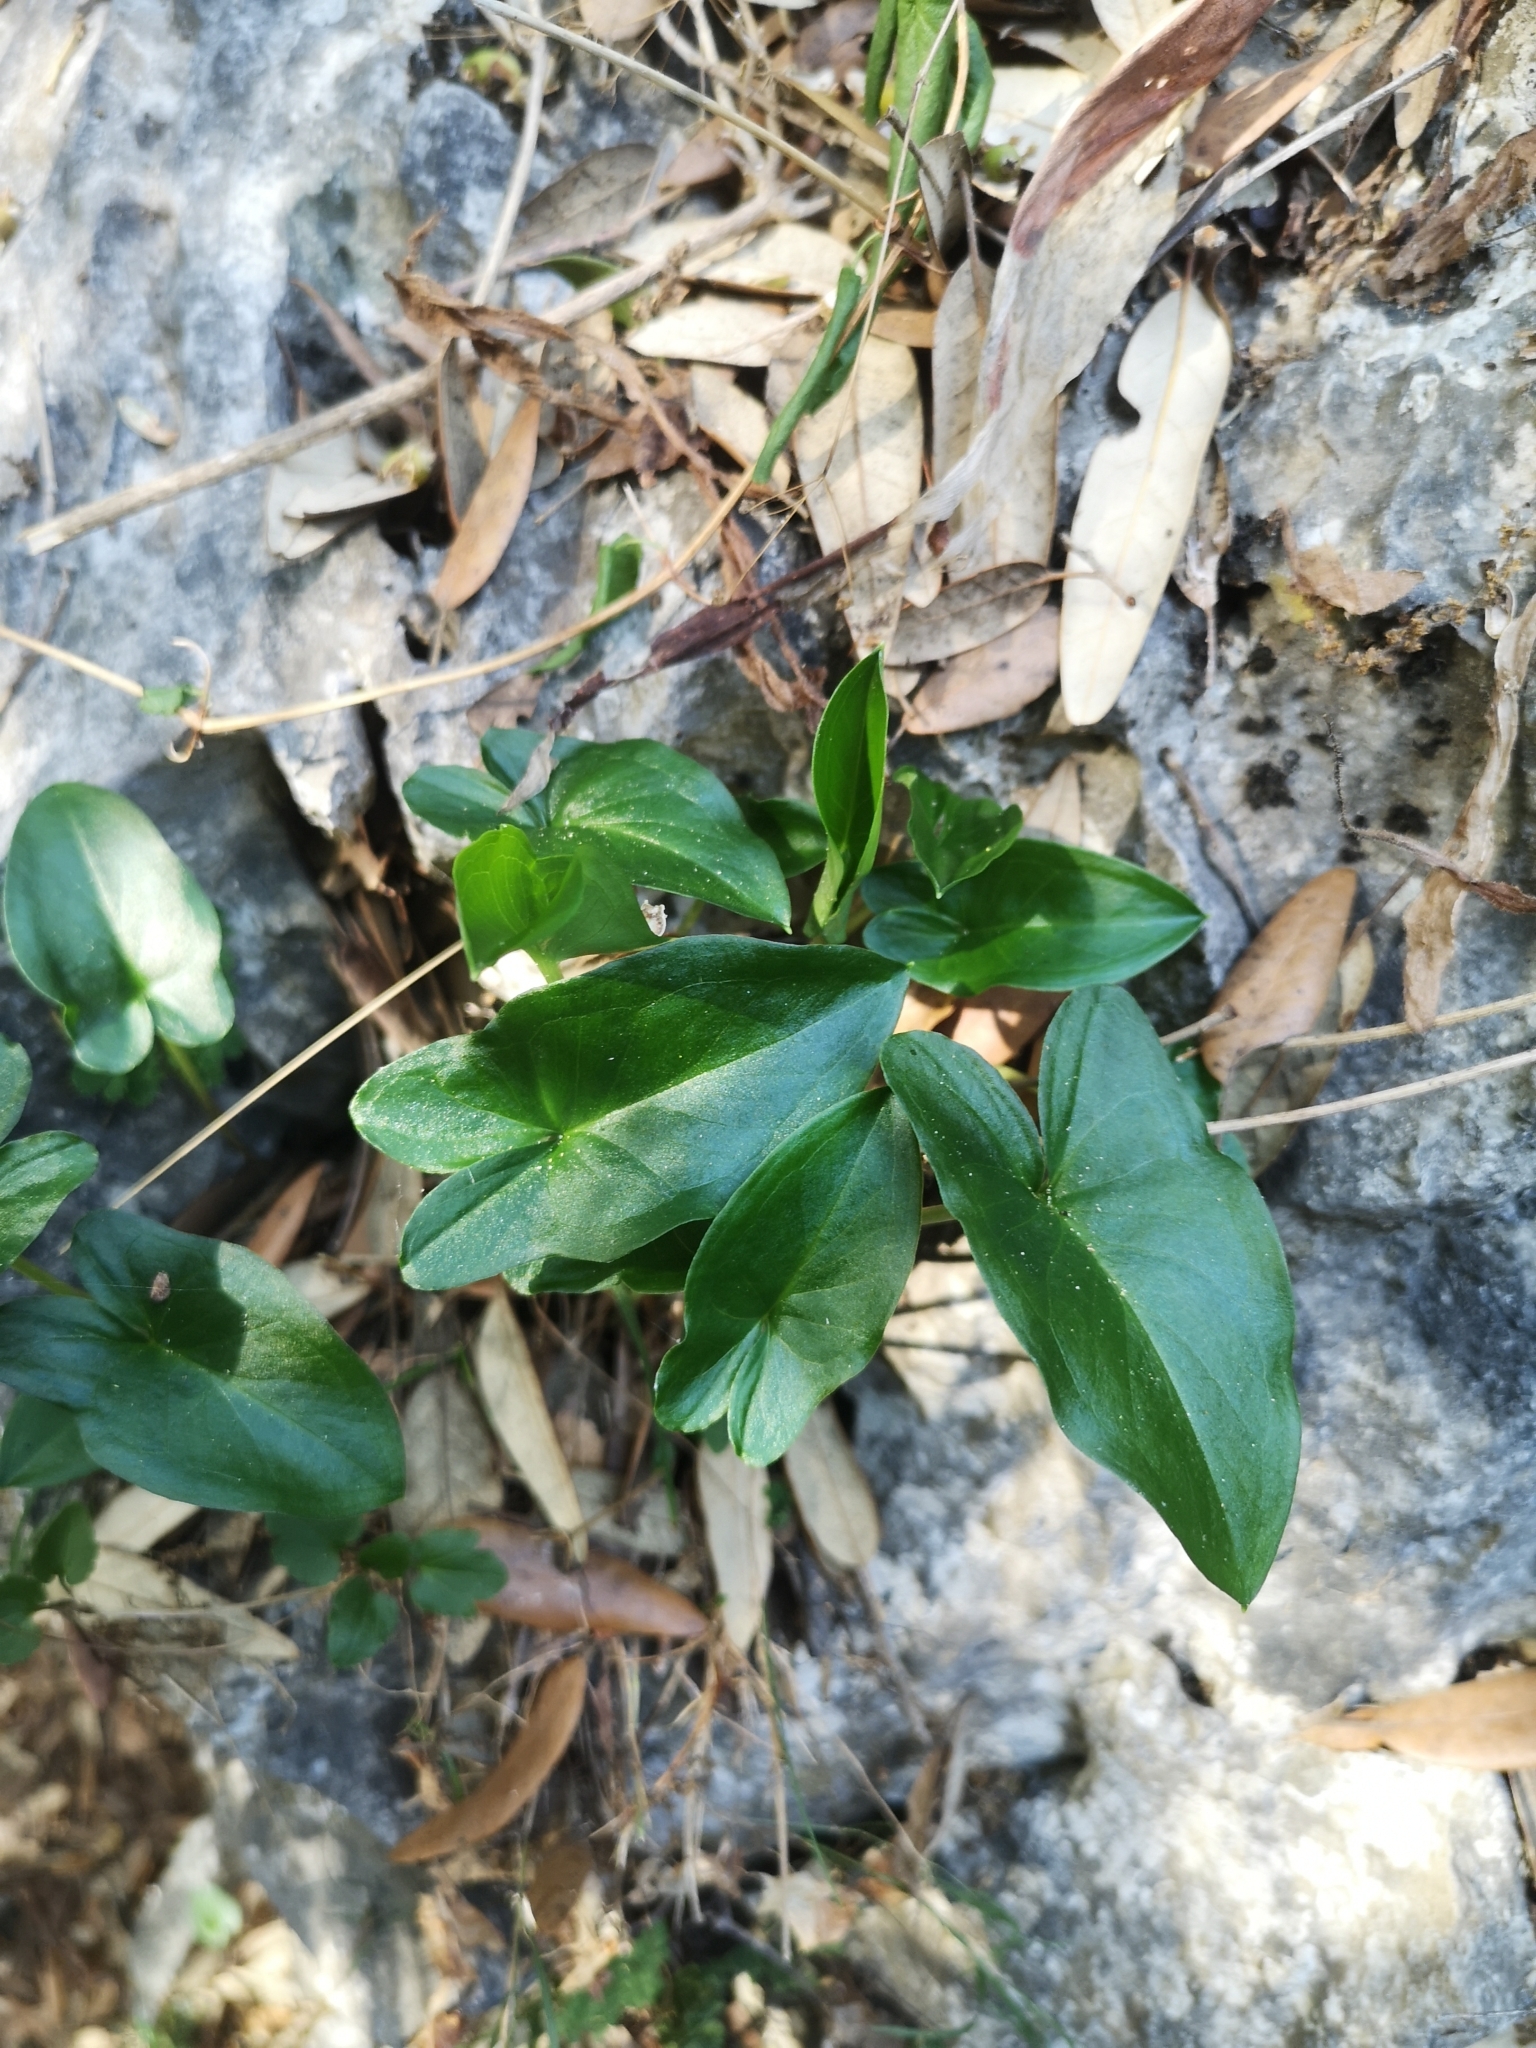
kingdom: Plantae
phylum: Tracheophyta
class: Liliopsida
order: Alismatales
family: Araceae
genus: Arisarum
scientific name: Arisarum vulgare
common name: Common arisarum
